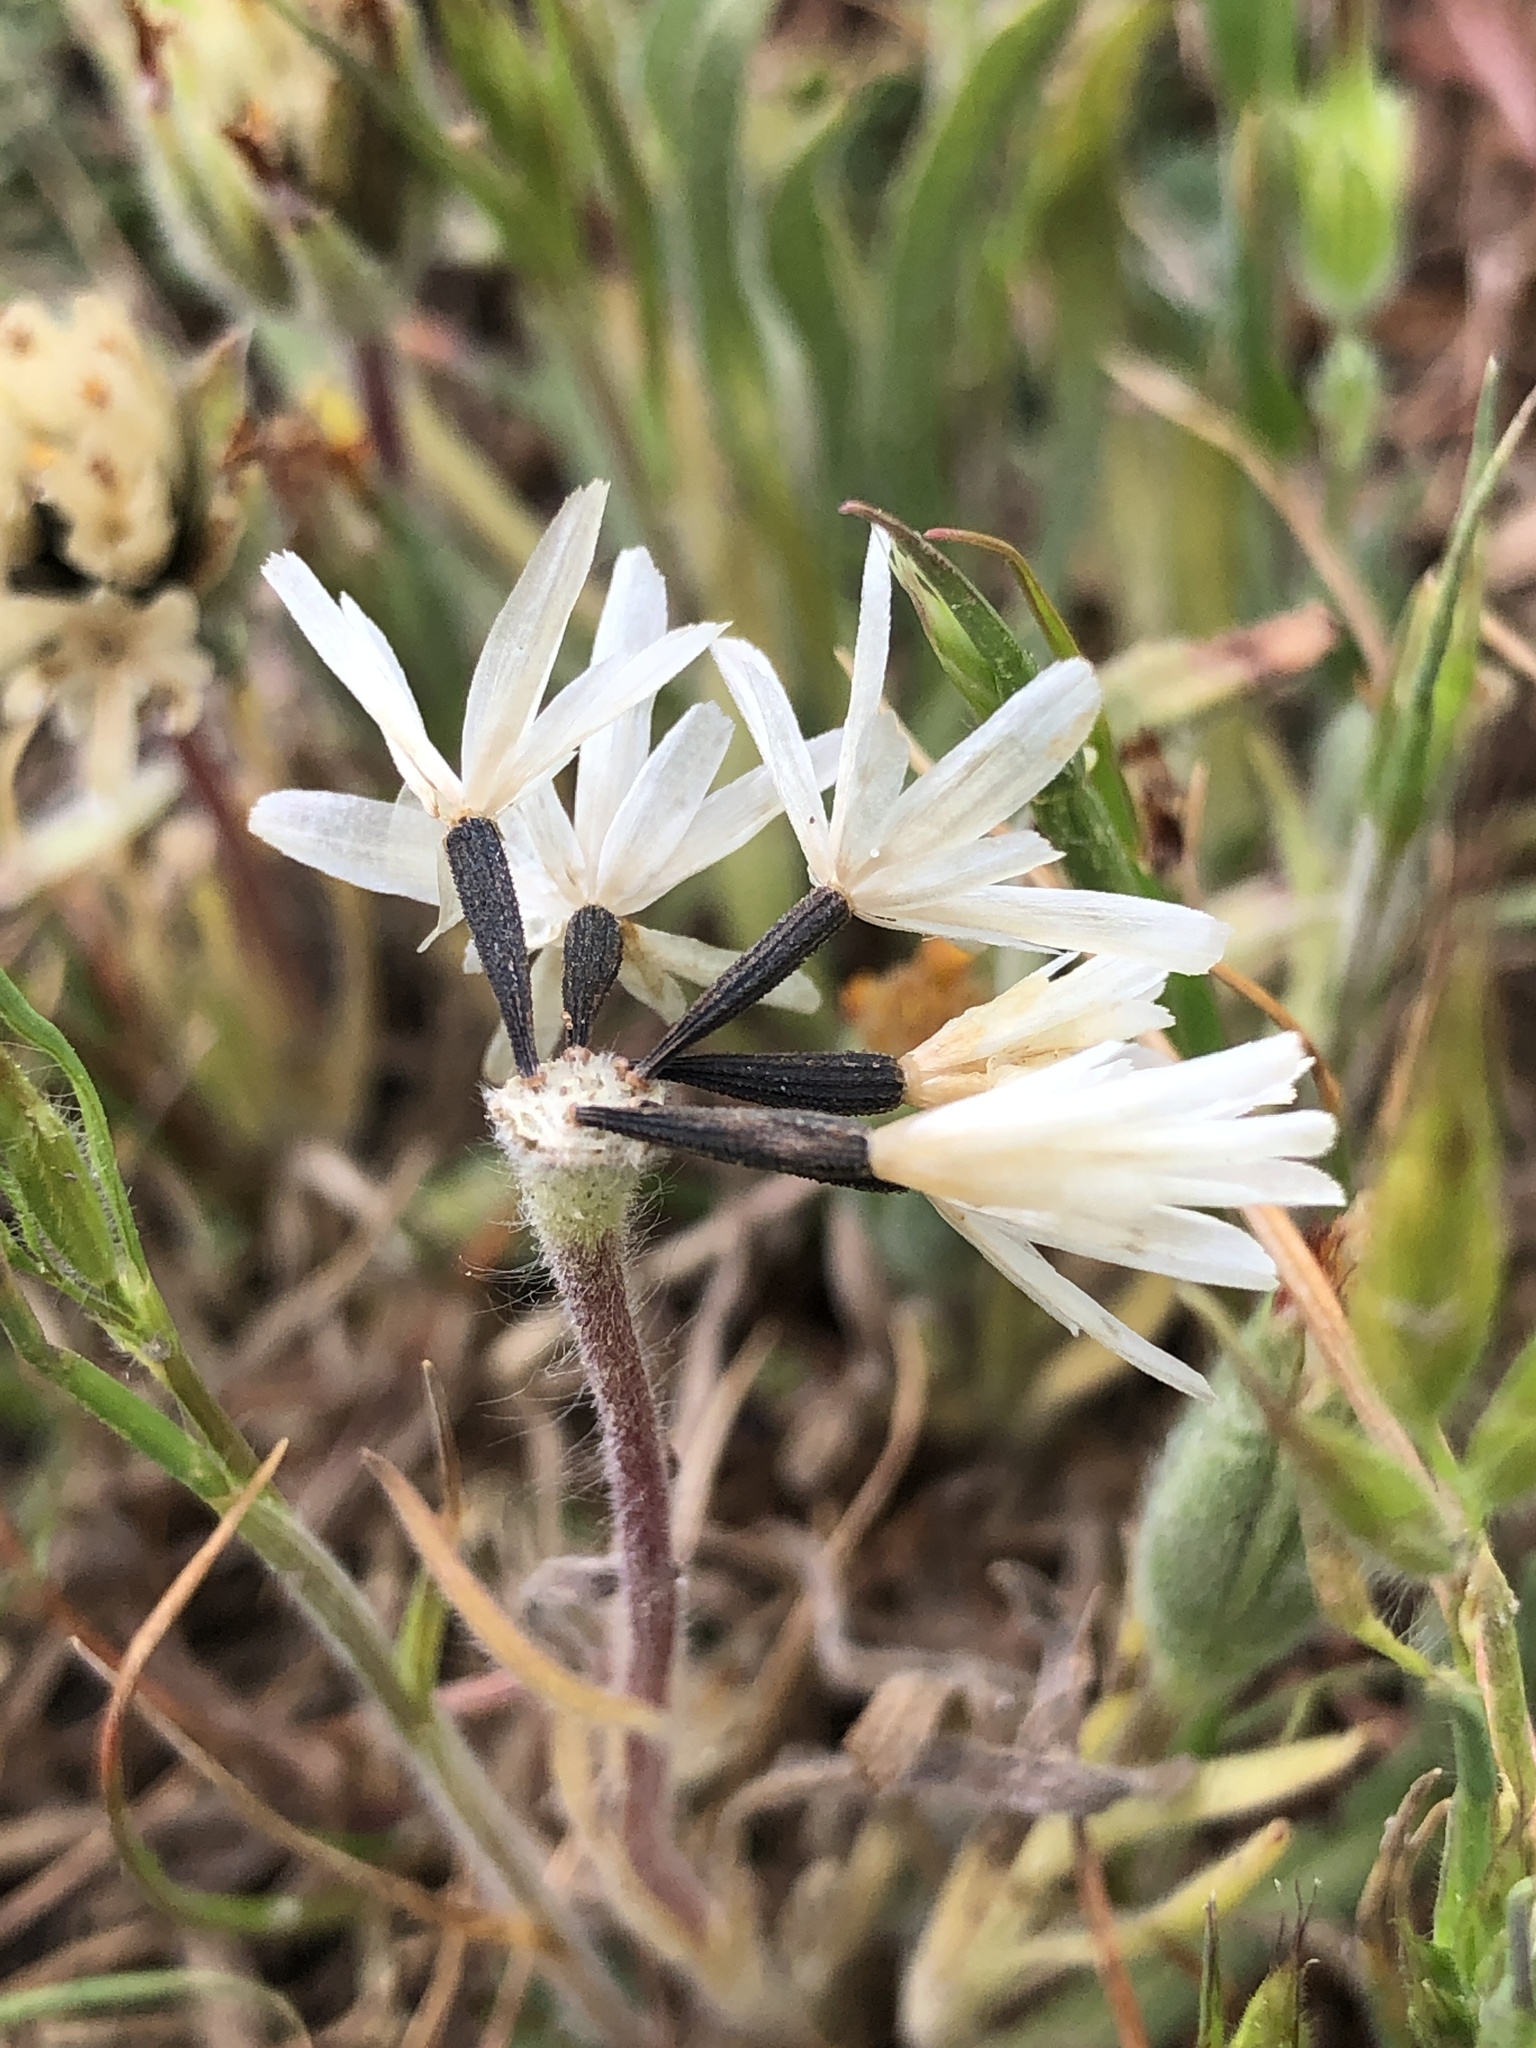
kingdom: Plantae
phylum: Tracheophyta
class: Magnoliopsida
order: Asterales
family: Asteraceae
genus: Achyrachaena
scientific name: Achyrachaena mollis
